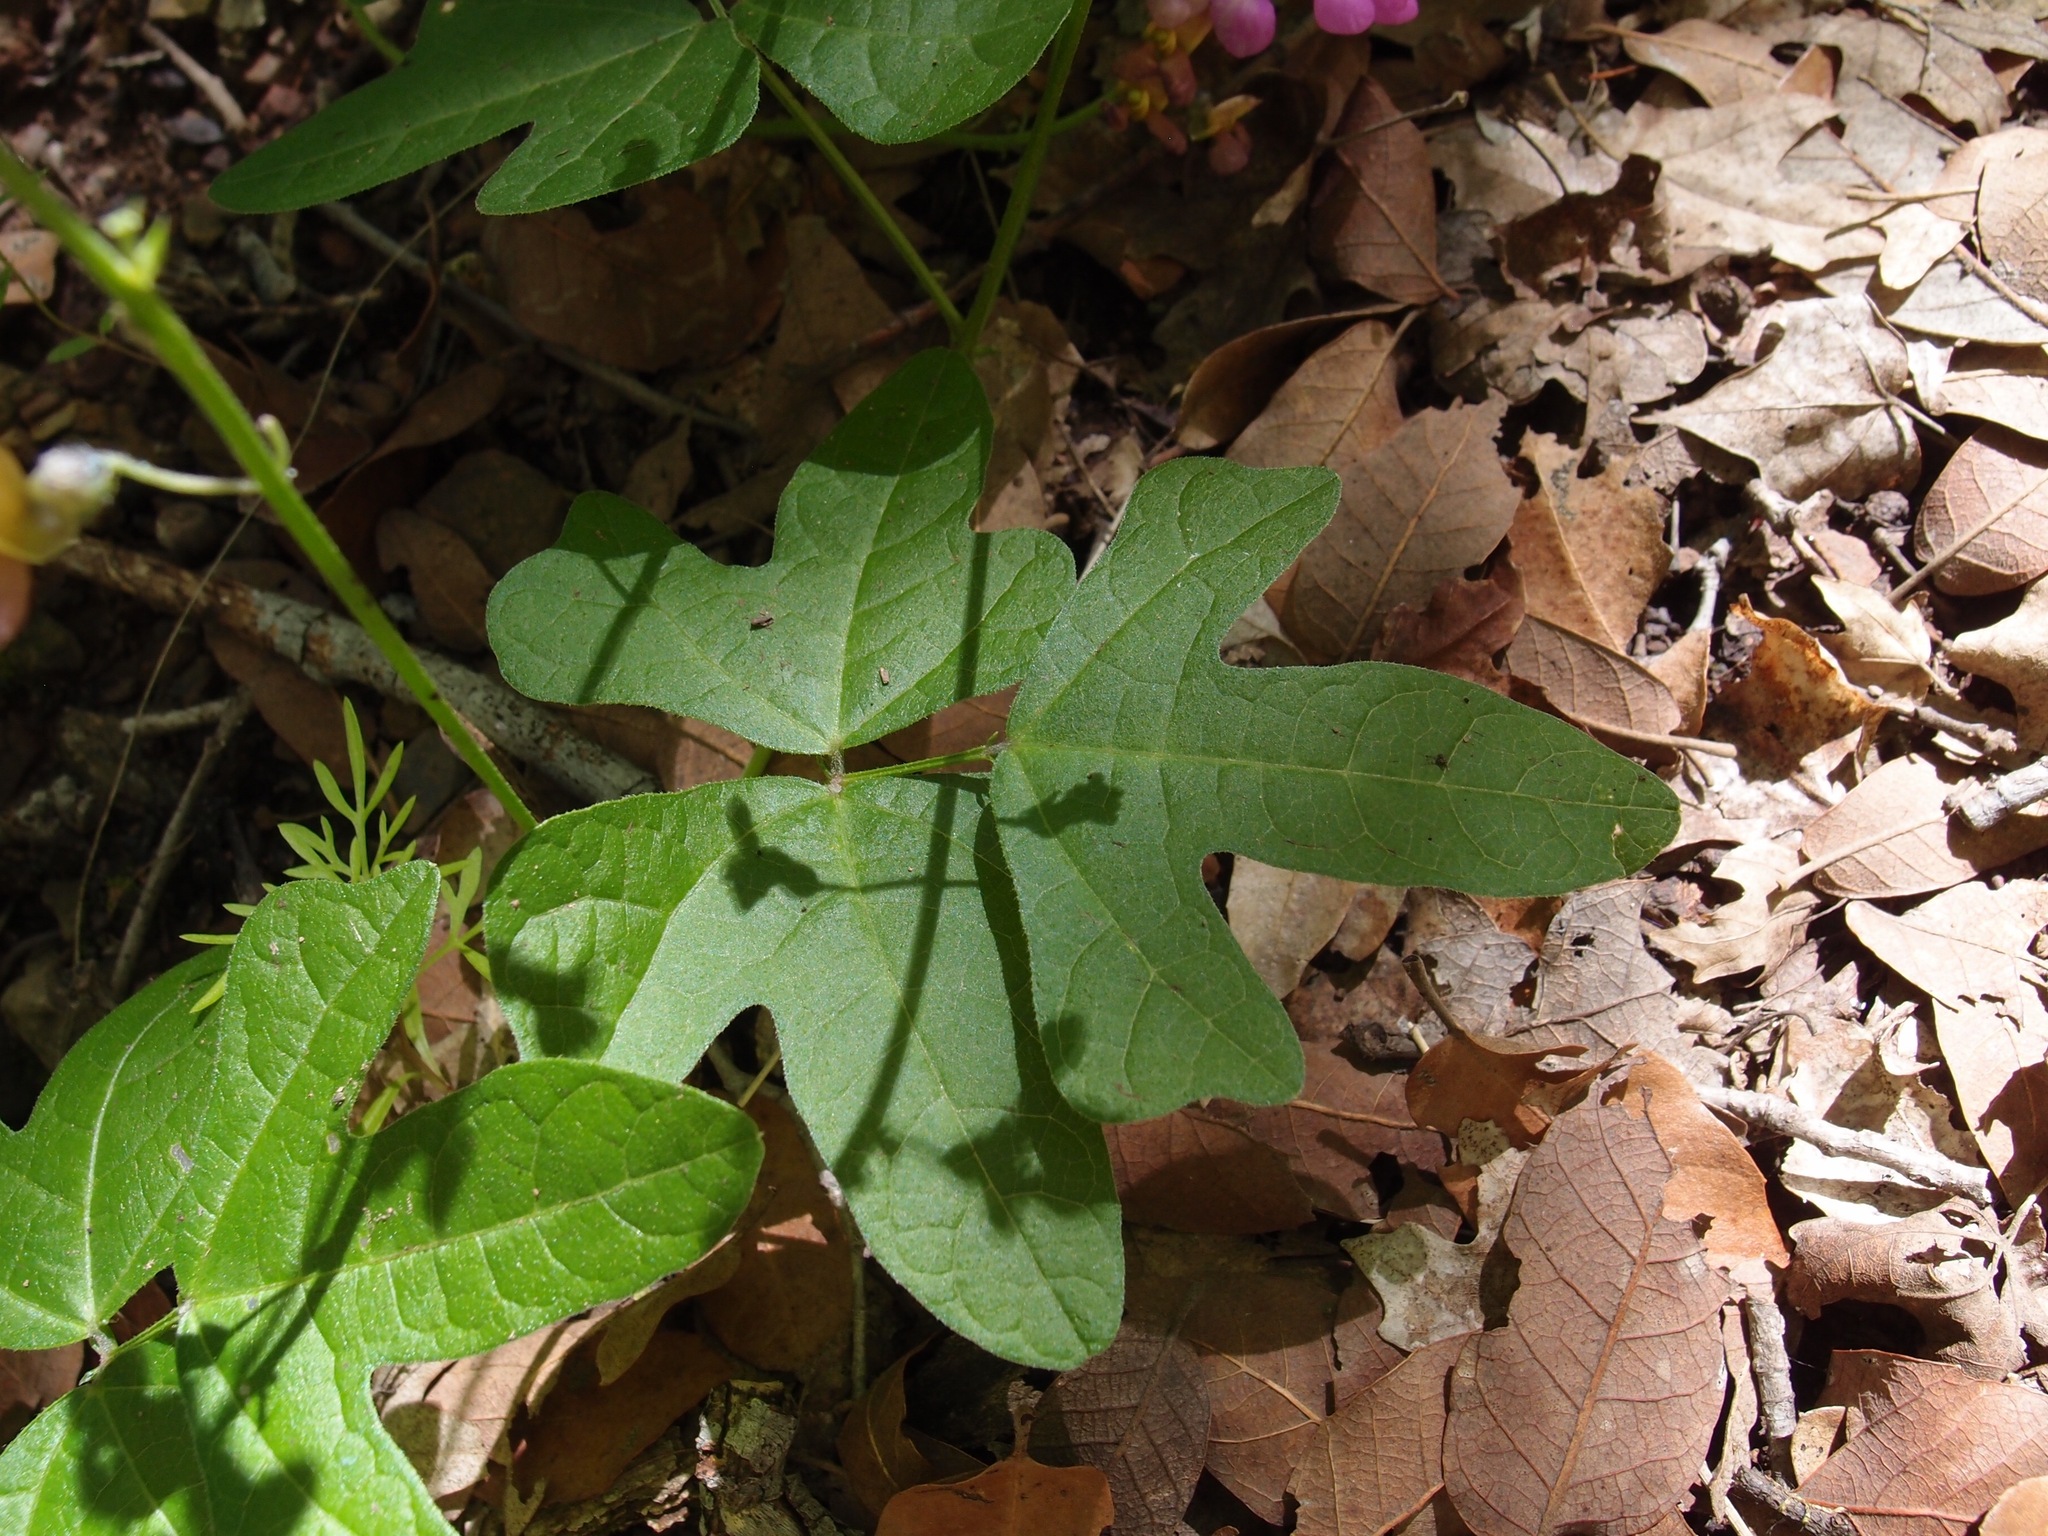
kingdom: Plantae
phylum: Tracheophyta
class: Magnoliopsida
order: Fabales
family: Fabaceae
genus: Phaseolus
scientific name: Phaseolus pedicellatus
